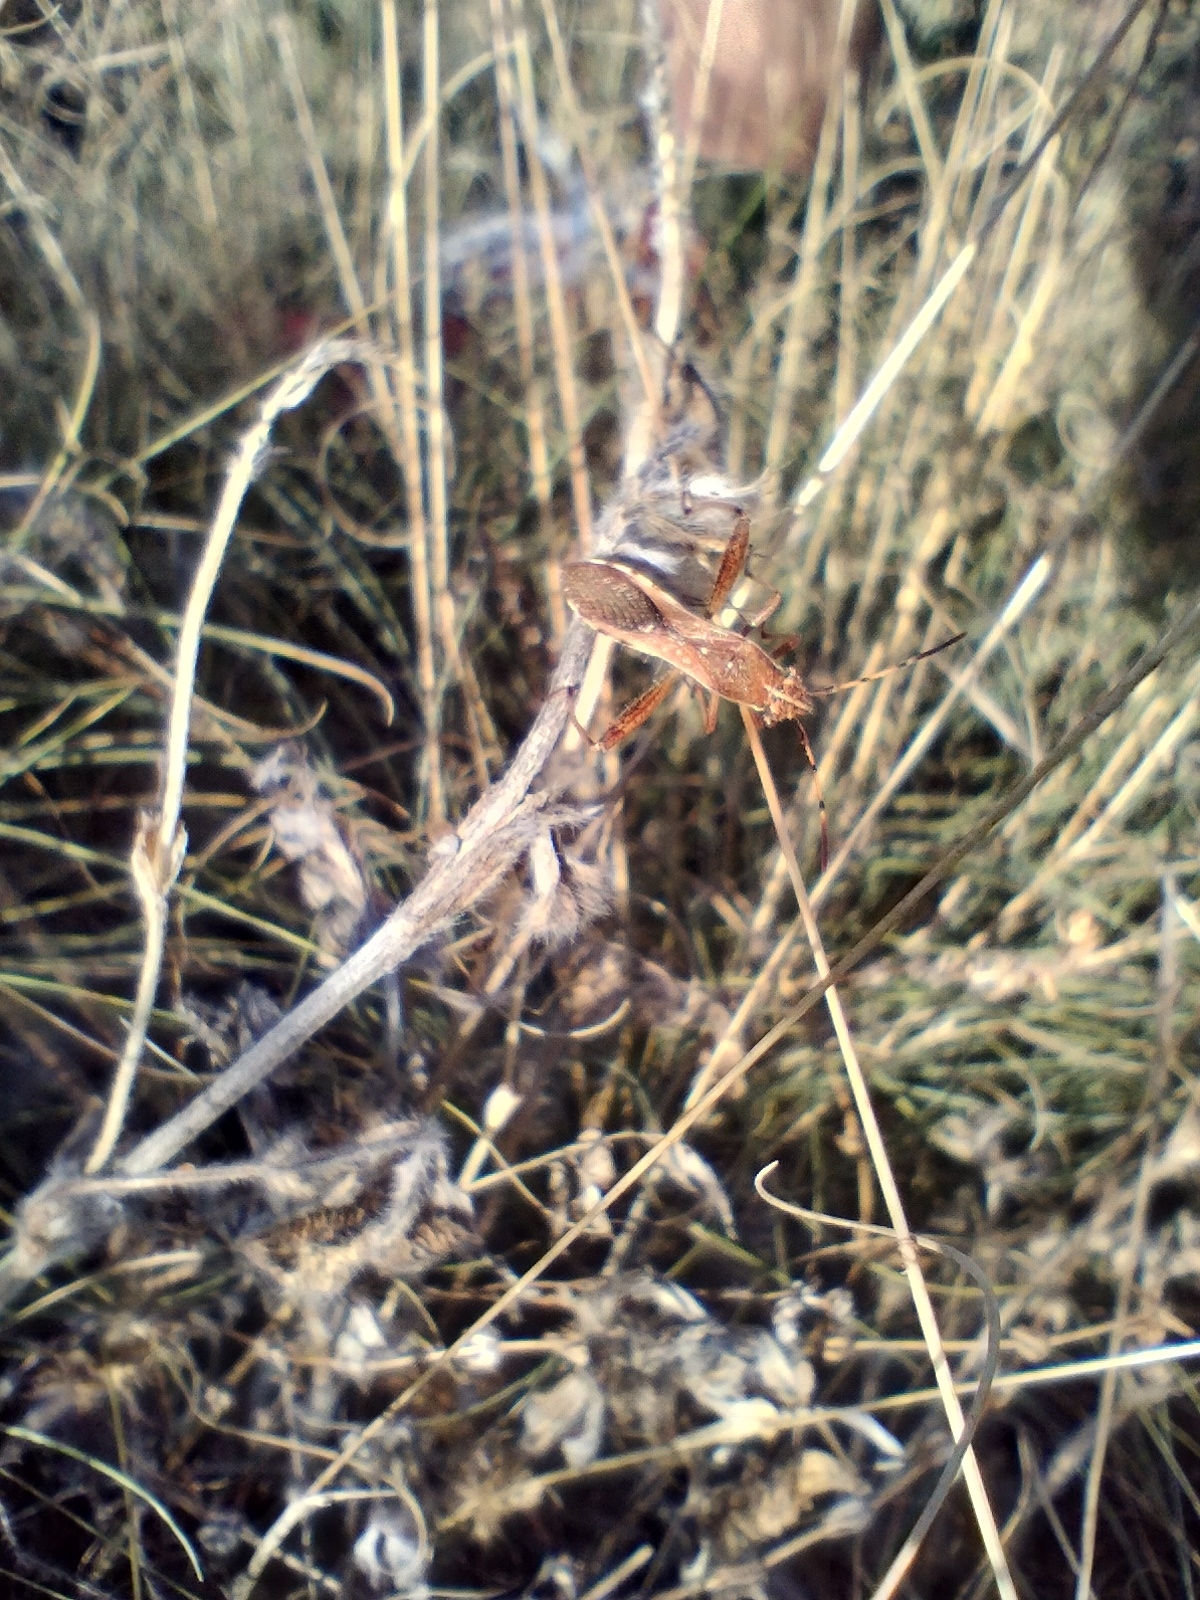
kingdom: Animalia
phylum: Arthropoda
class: Insecta
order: Hemiptera
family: Alydidae
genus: Camptopus
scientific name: Camptopus lateralis
